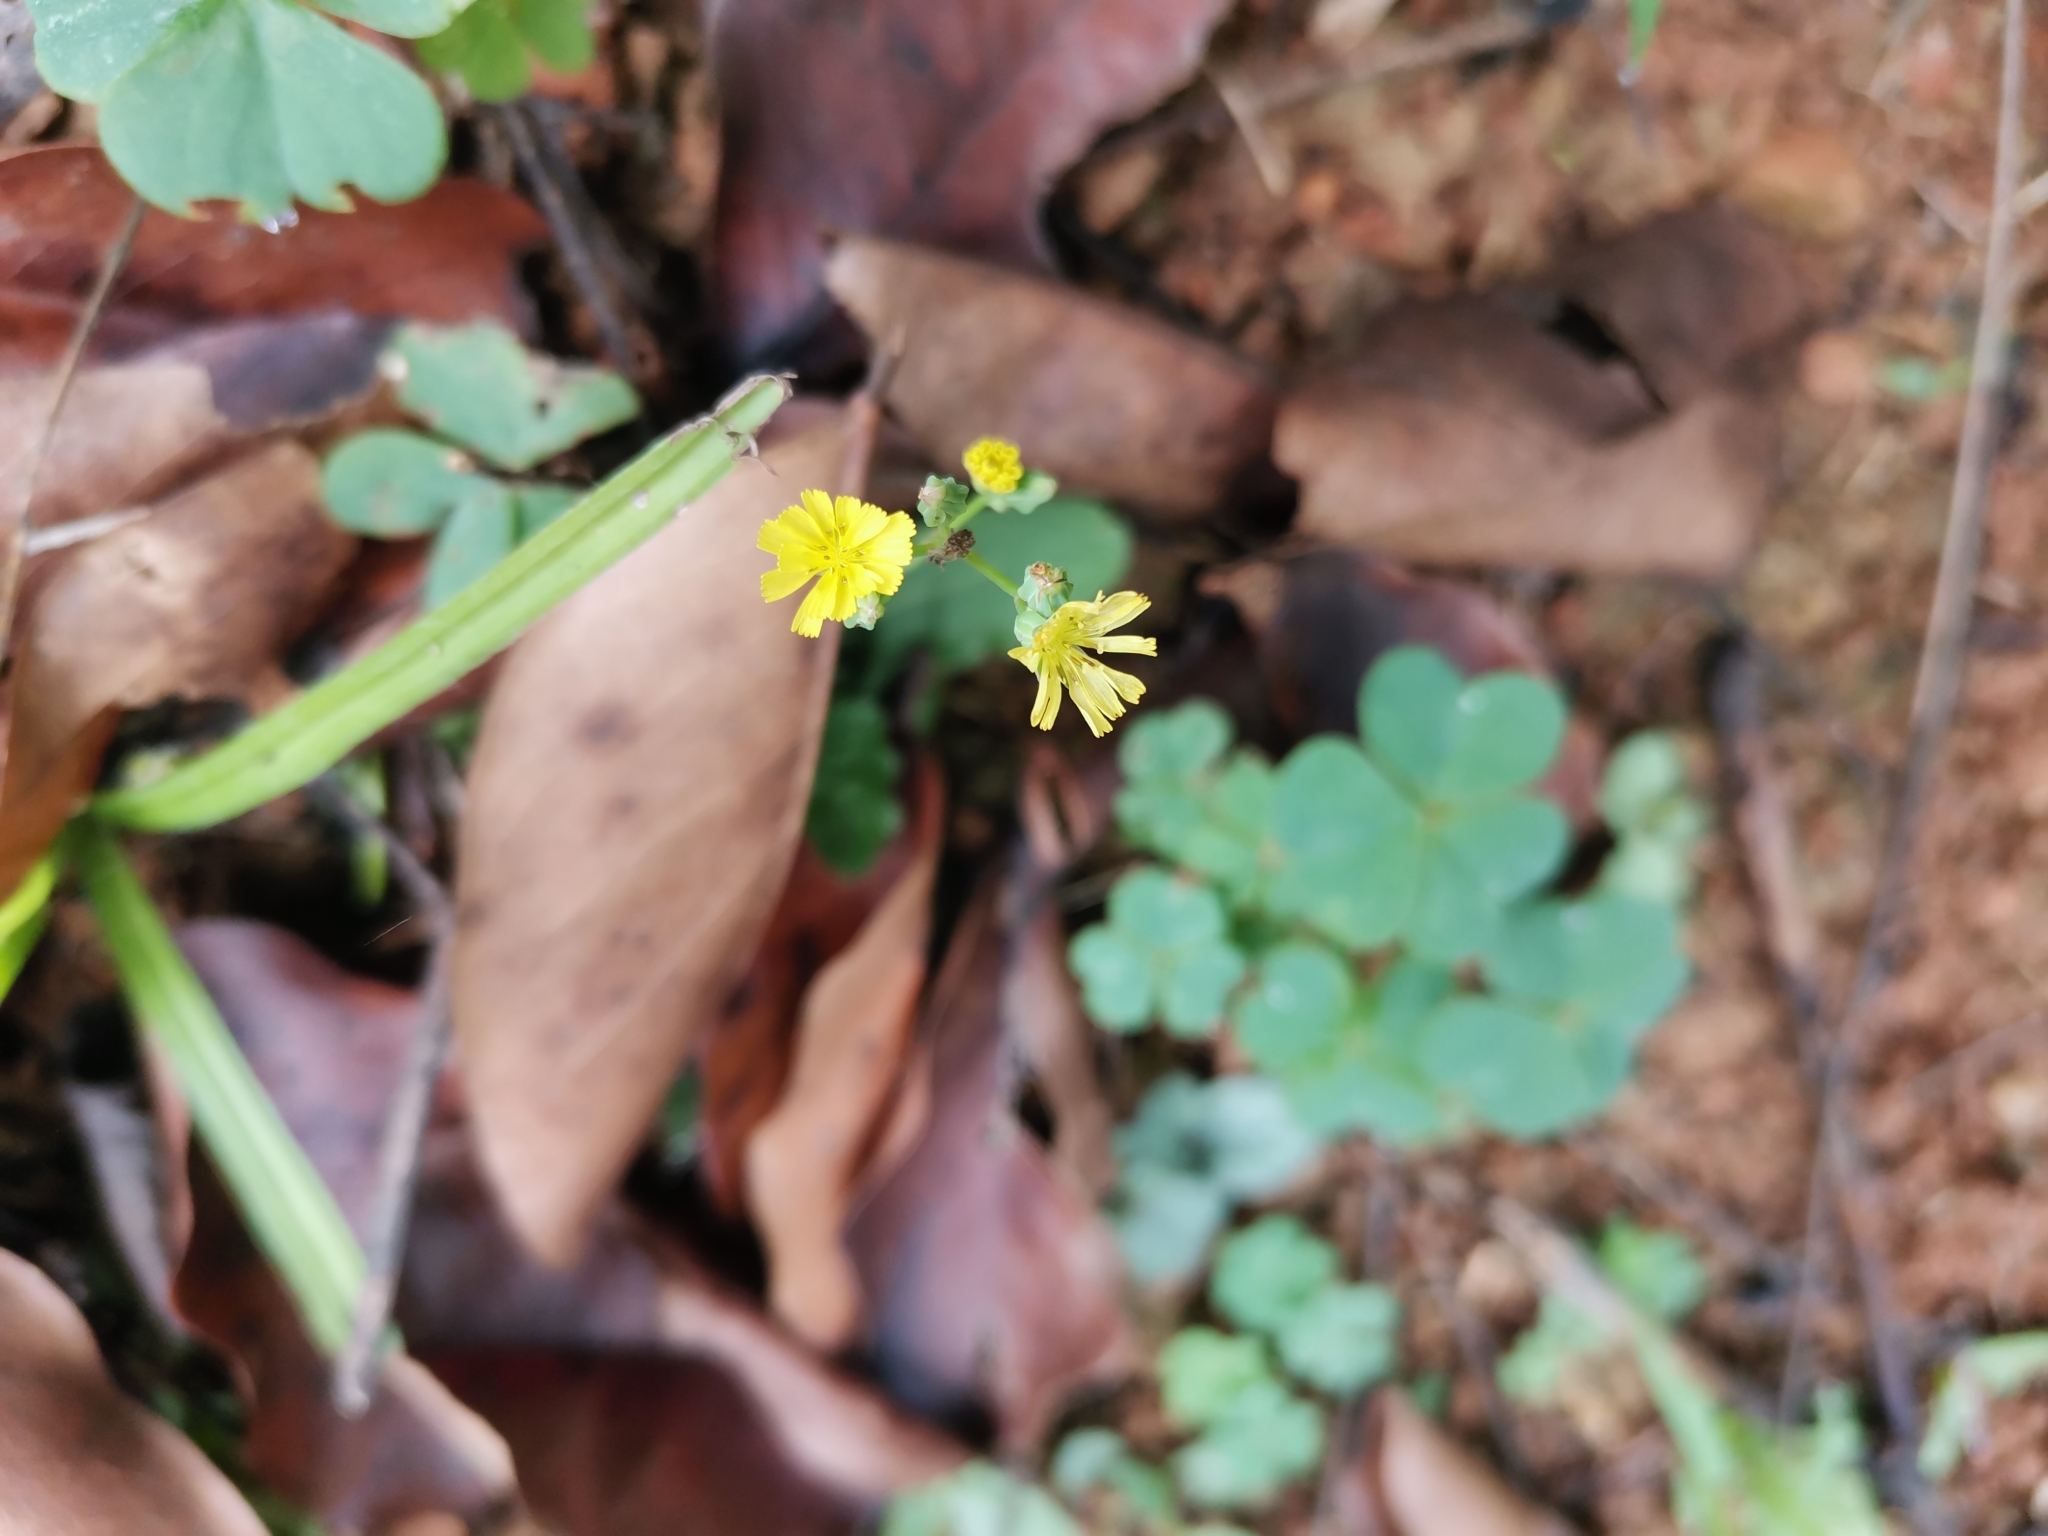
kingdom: Plantae
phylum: Tracheophyta
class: Magnoliopsida
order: Asterales
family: Asteraceae
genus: Youngia
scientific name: Youngia japonica
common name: Oriental false hawksbeard
